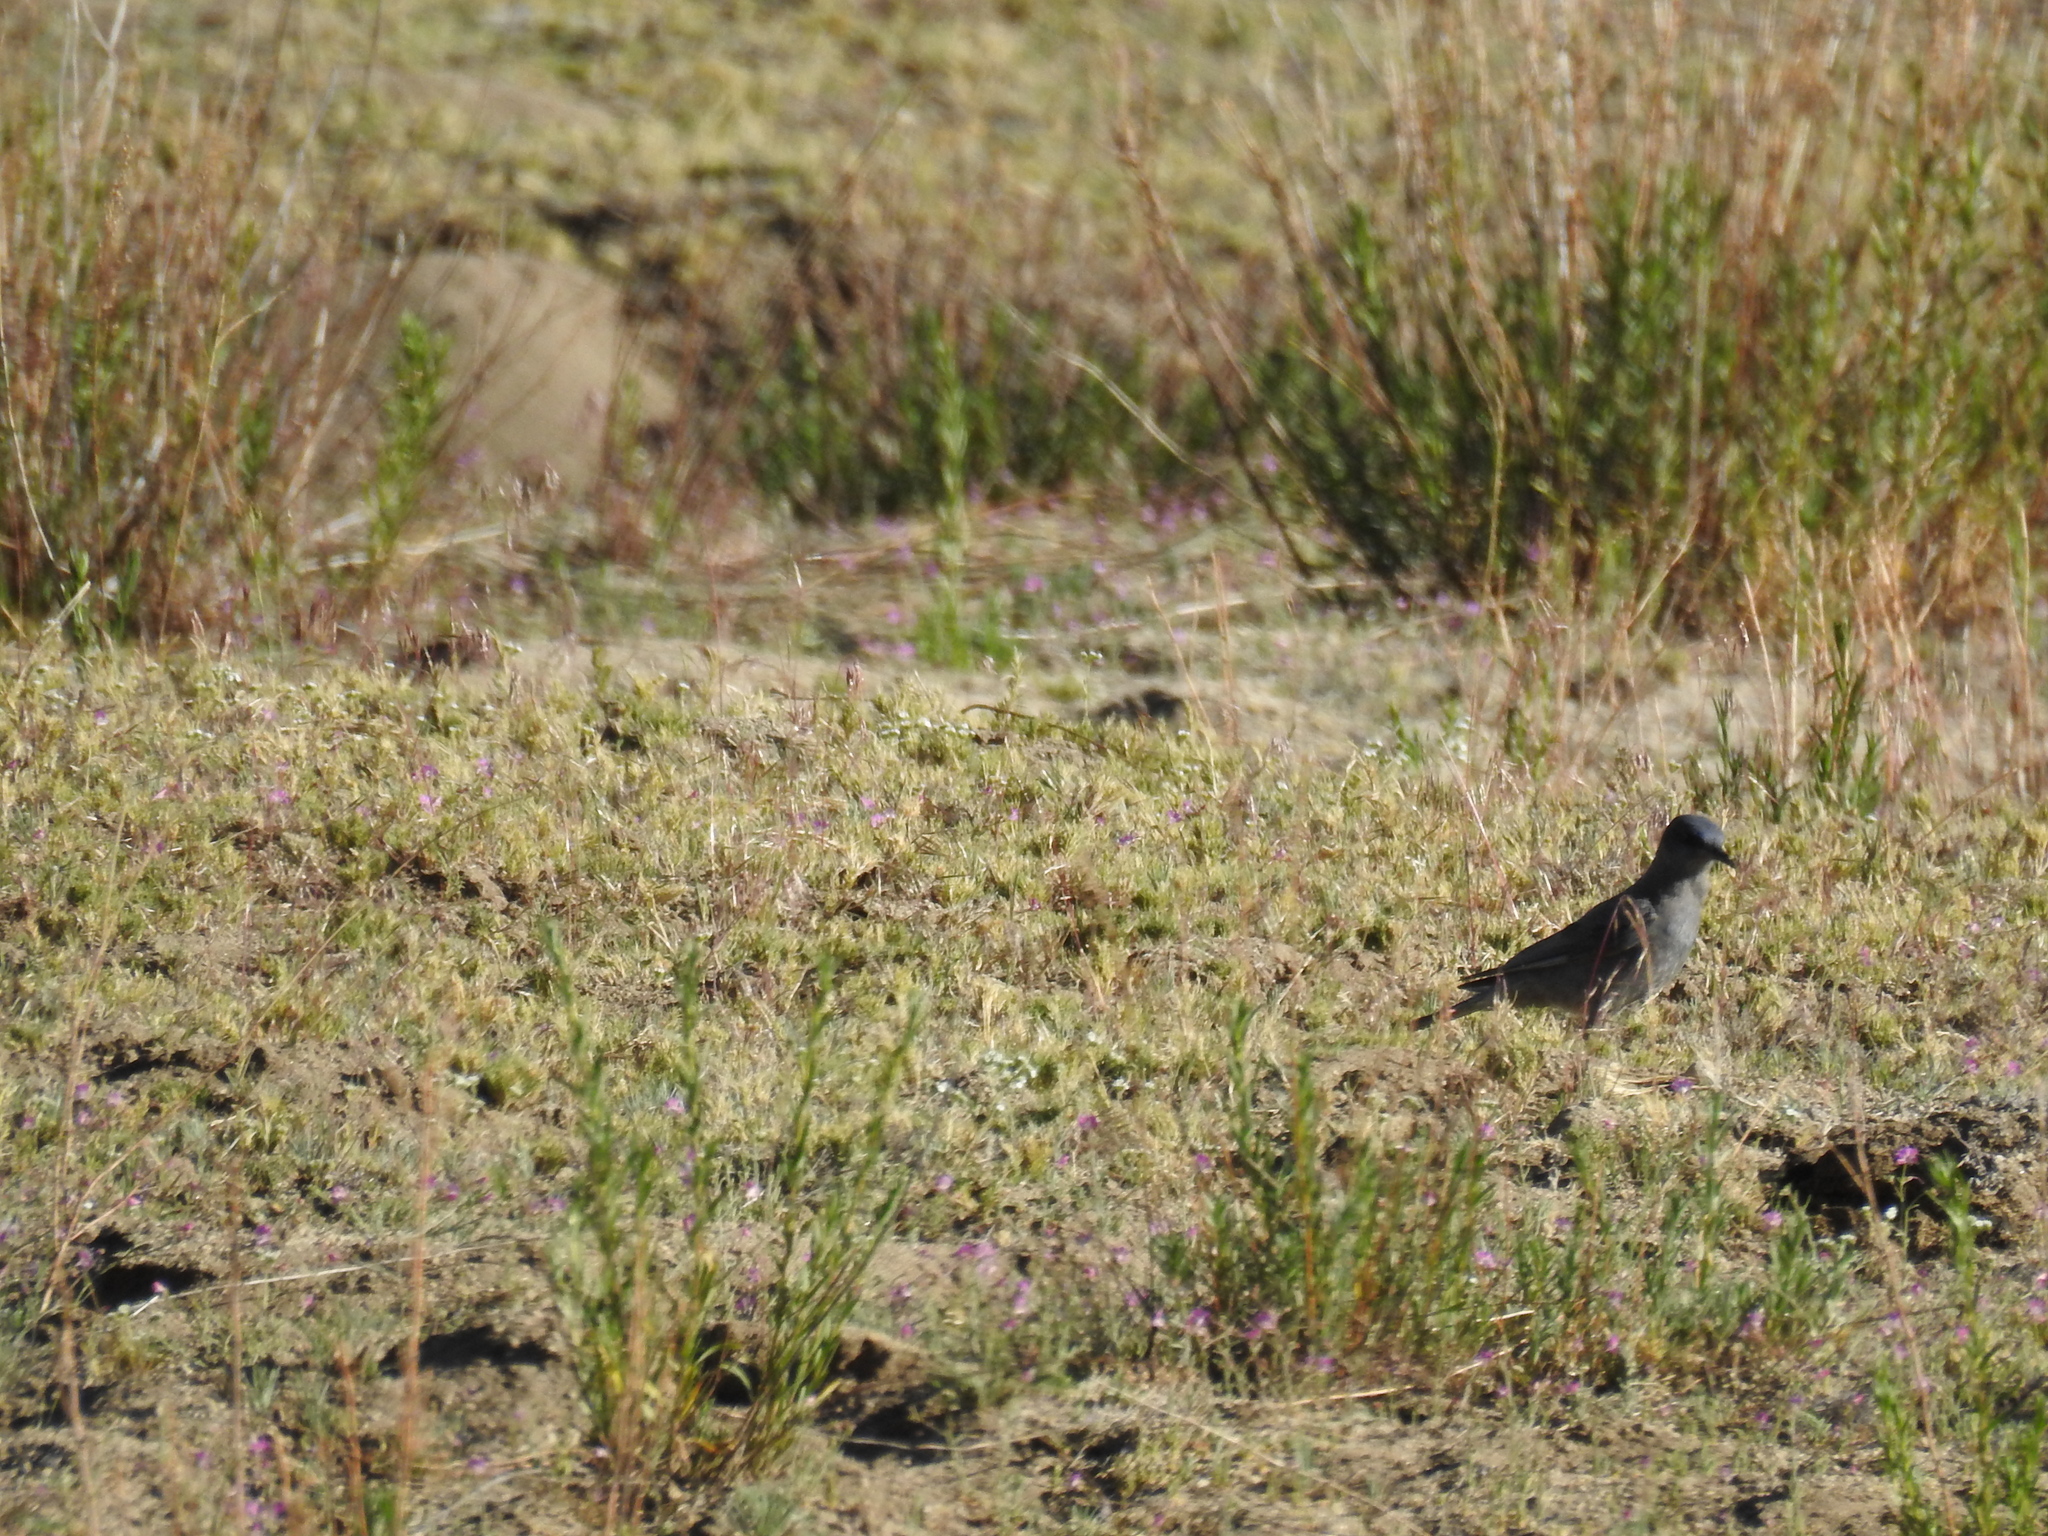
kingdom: Animalia
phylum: Chordata
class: Aves
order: Passeriformes
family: Corvidae
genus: Gymnorhinus
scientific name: Gymnorhinus cyanocephalus
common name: Pinyon jay
